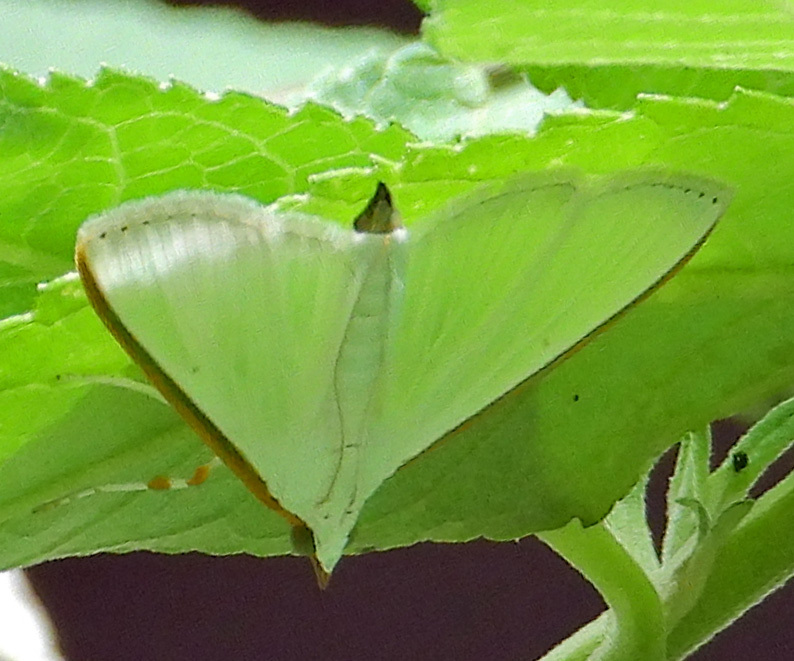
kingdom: Animalia
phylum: Arthropoda
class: Insecta
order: Lepidoptera
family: Crambidae
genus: Diaphania
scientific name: Diaphania costata
